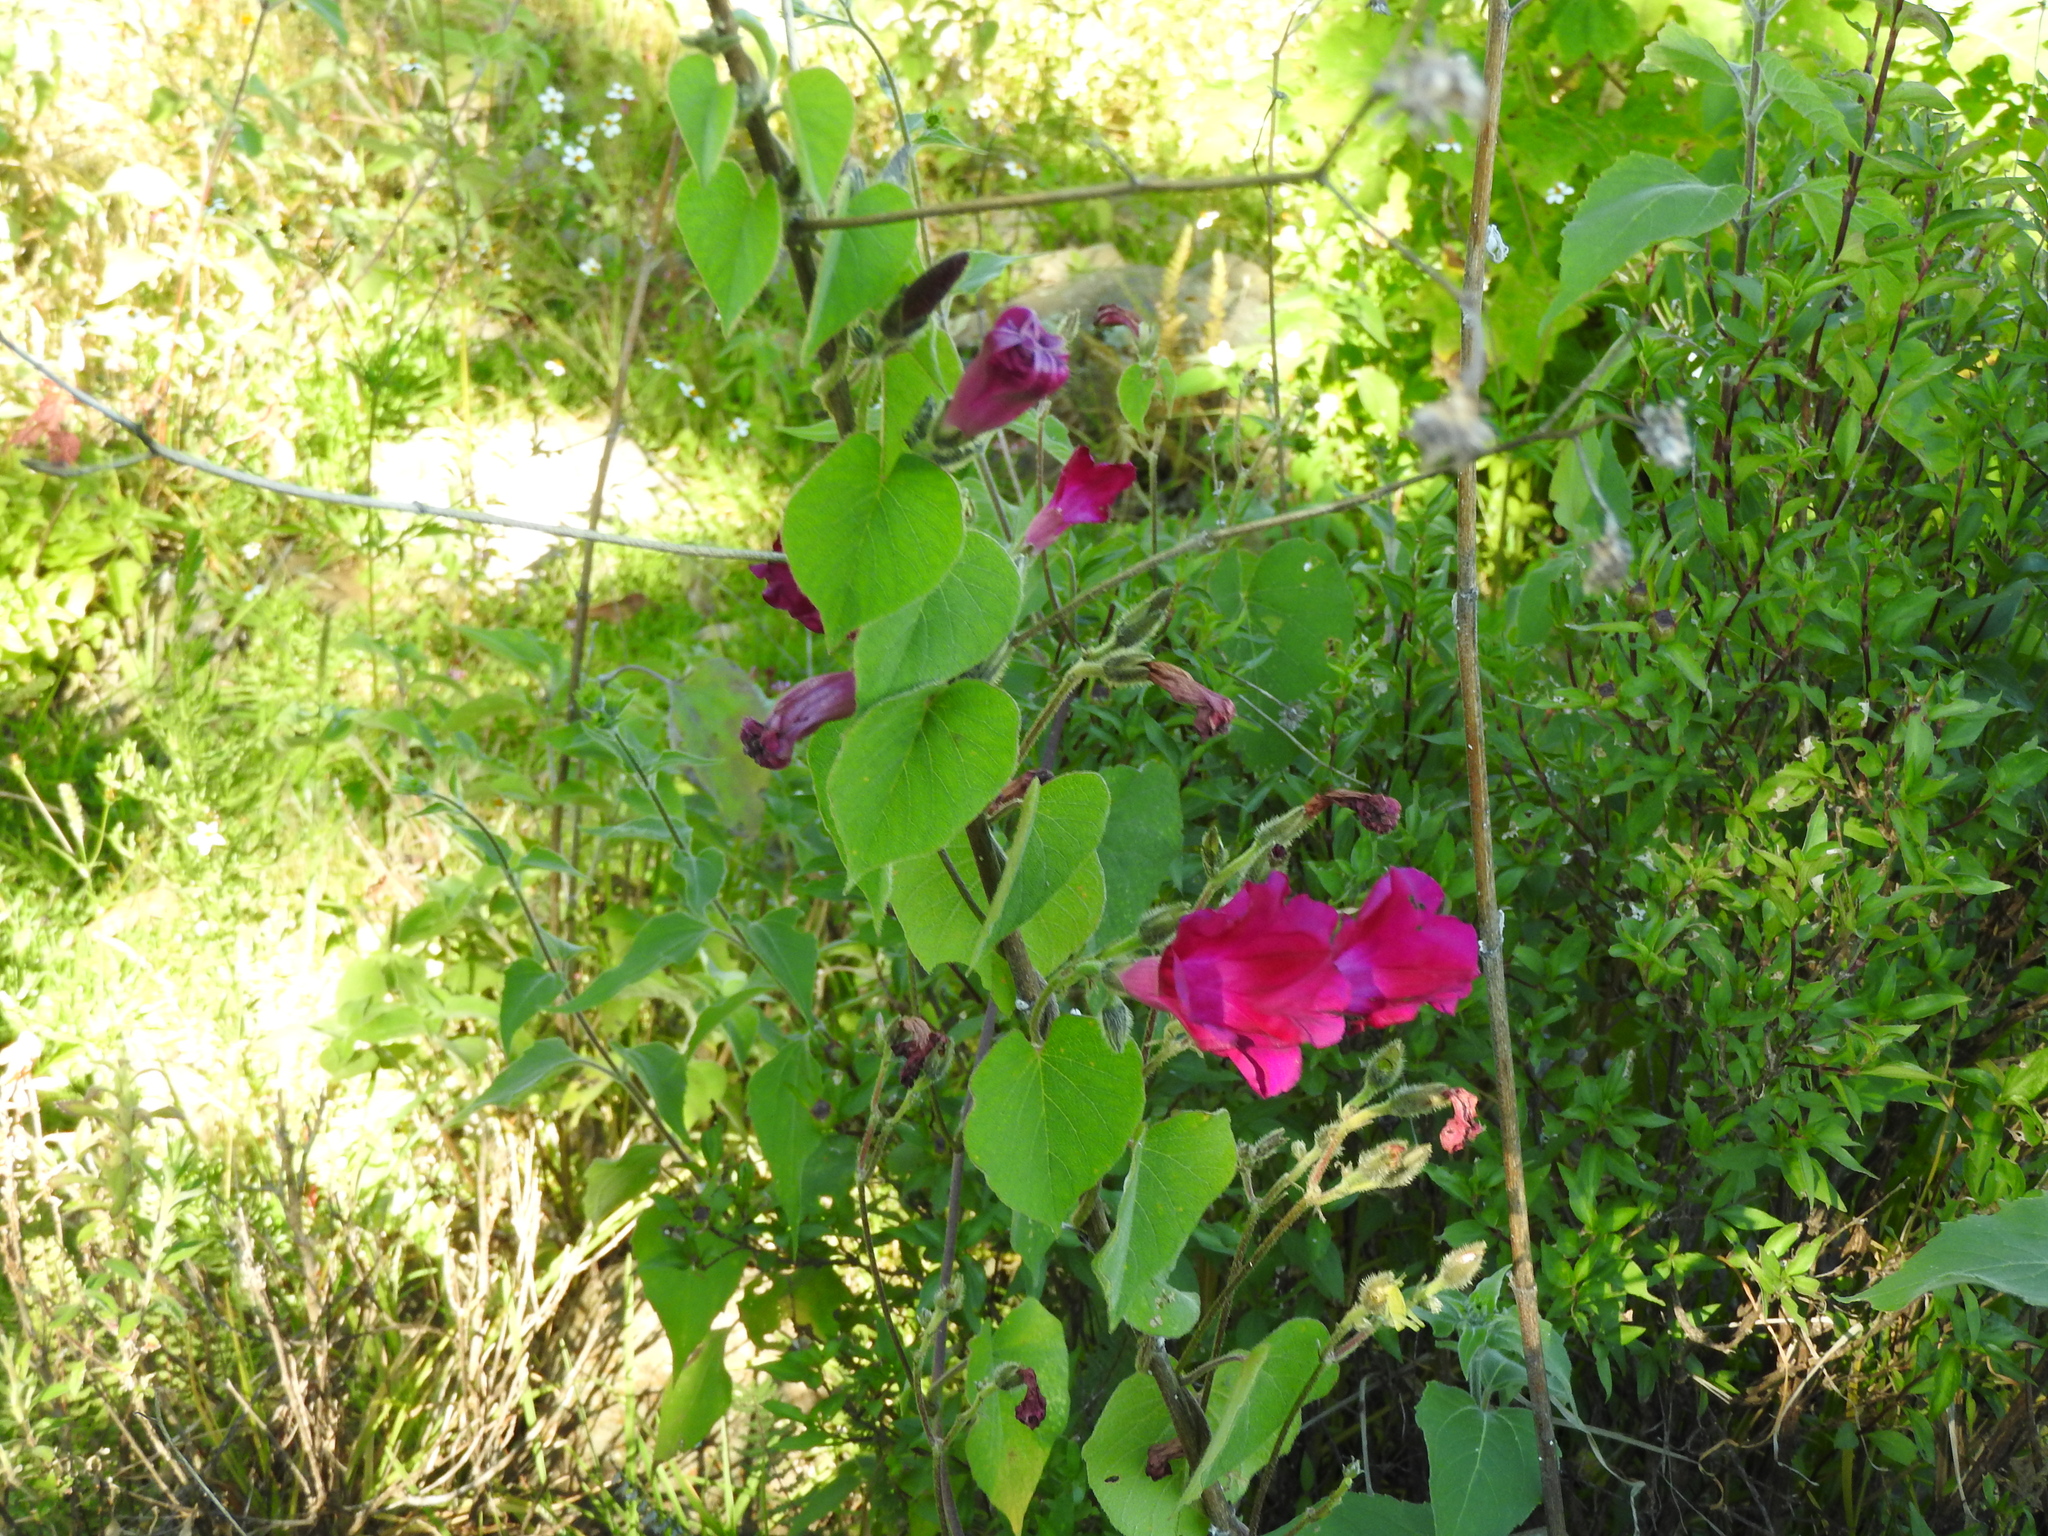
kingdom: Plantae
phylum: Tracheophyta
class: Magnoliopsida
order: Solanales
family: Convolvulaceae
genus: Ipomoea
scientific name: Ipomoea orizabensis
